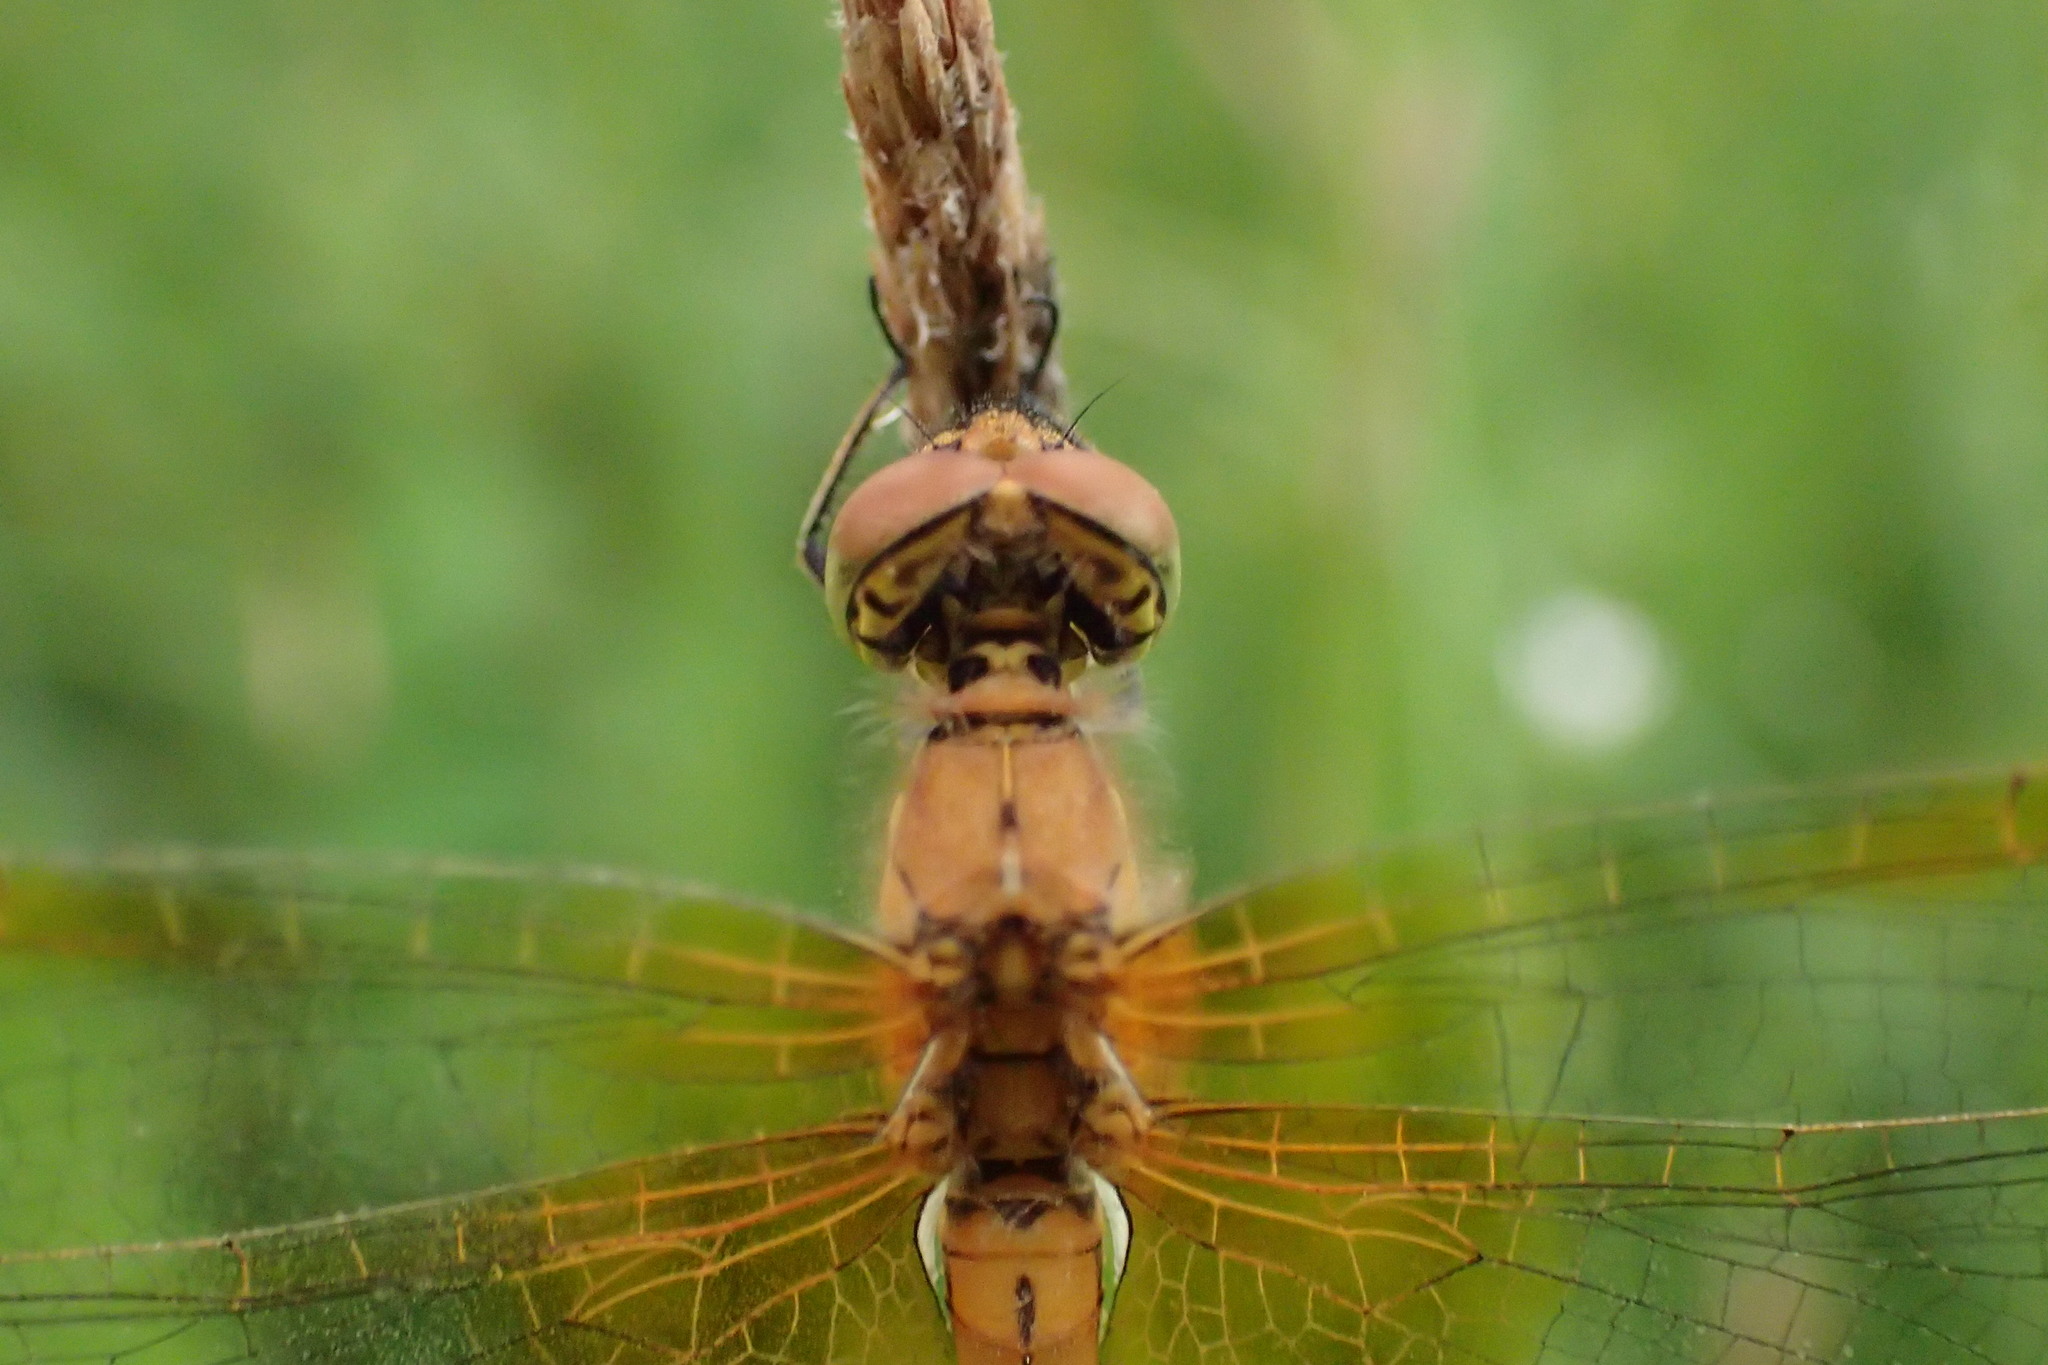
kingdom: Animalia
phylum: Arthropoda
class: Insecta
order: Odonata
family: Libellulidae
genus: Sympetrum
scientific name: Sympetrum flaveolum
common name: Yellow-winged darter
